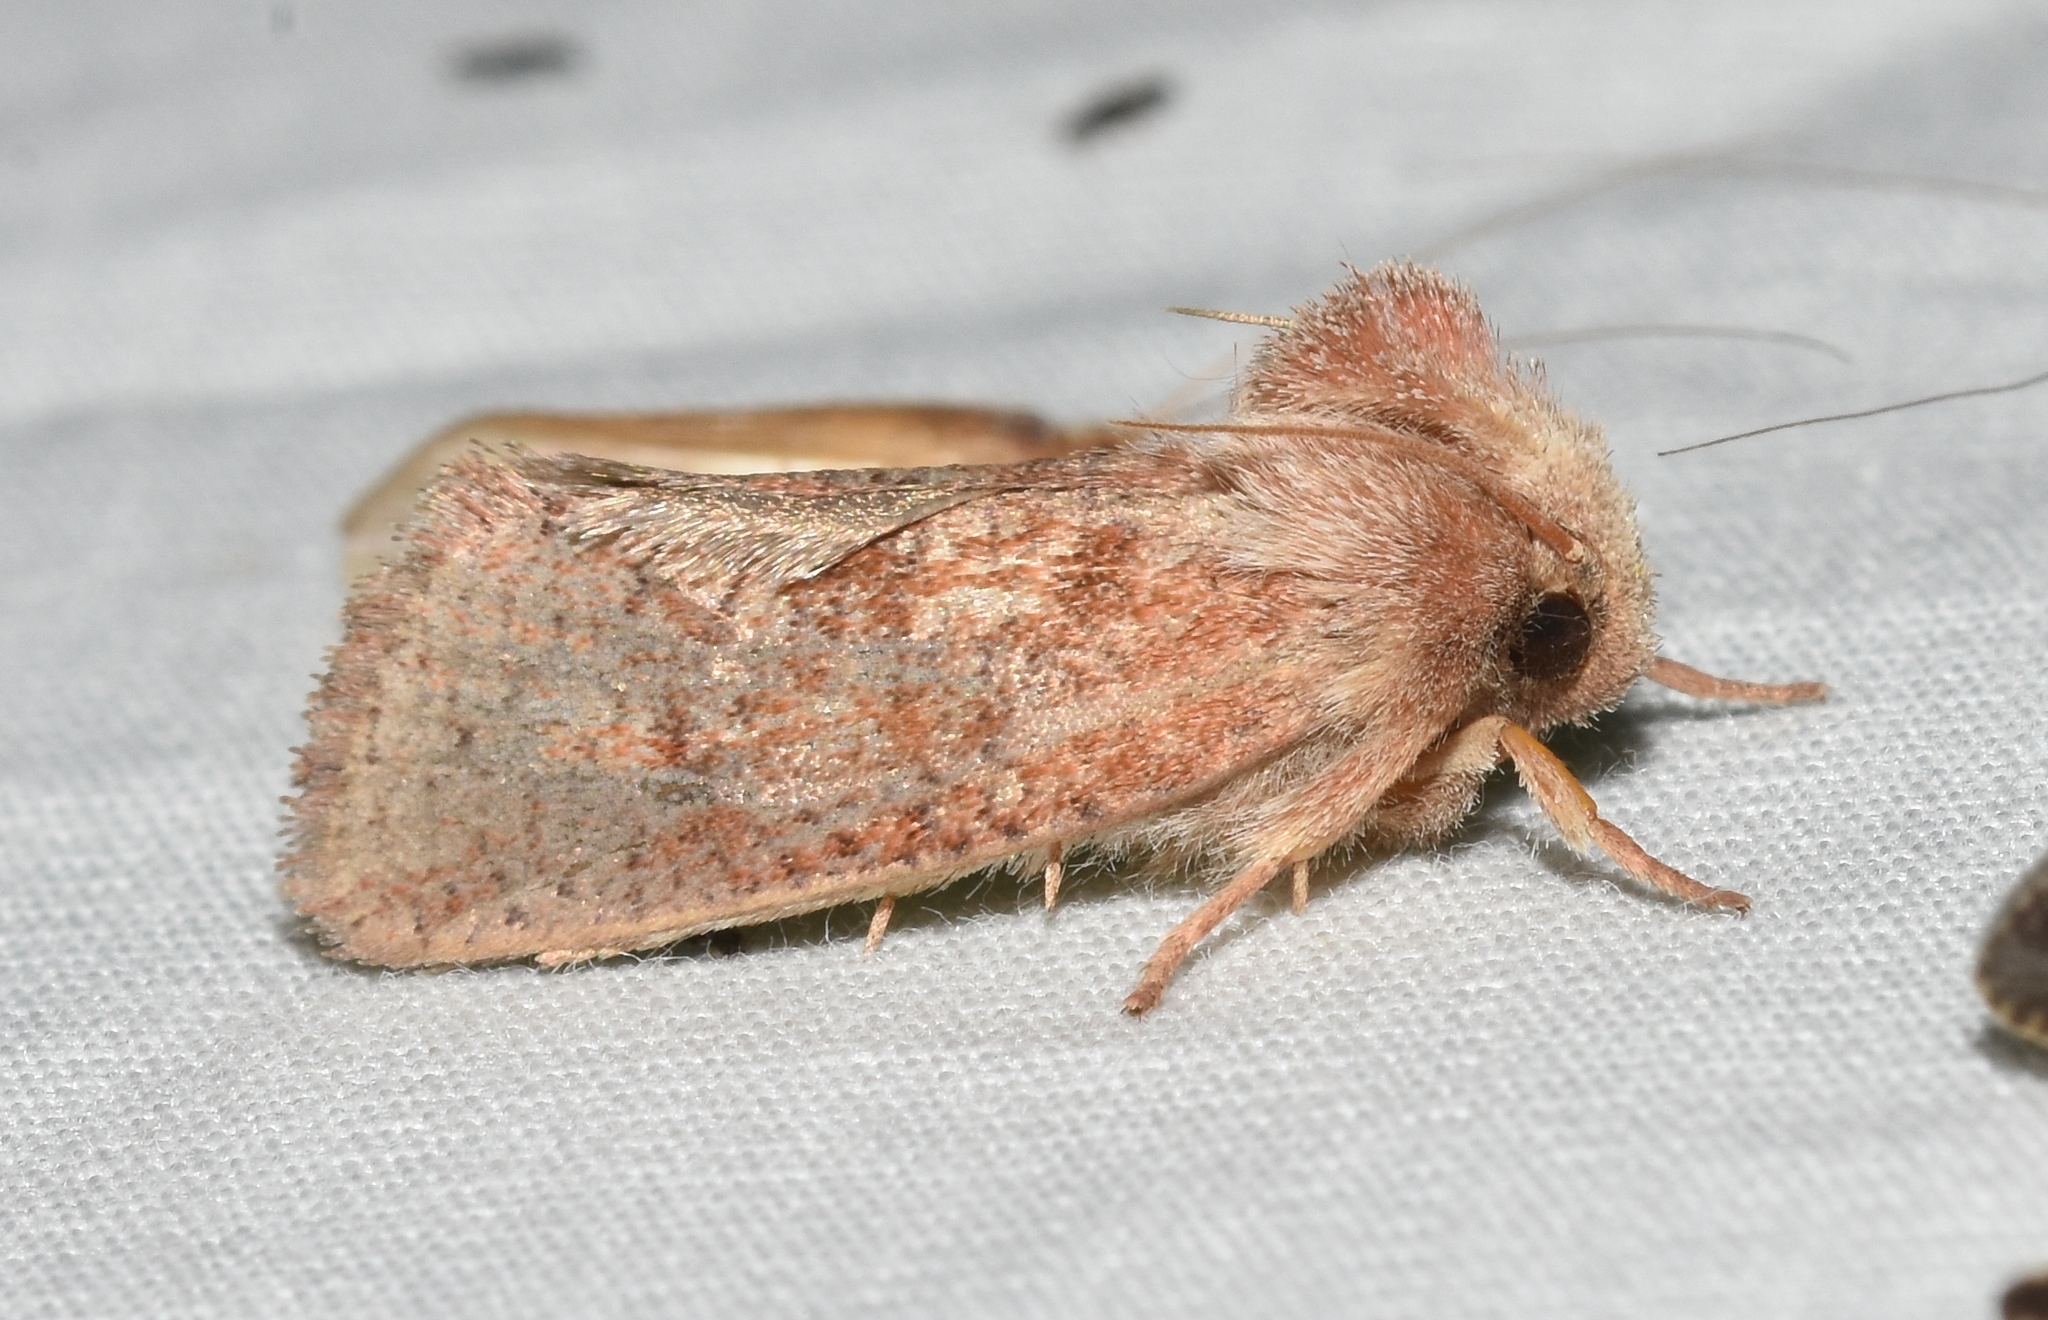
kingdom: Animalia
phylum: Arthropoda
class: Insecta
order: Lepidoptera
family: Tineidae
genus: Acrolophus
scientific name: Acrolophus plumifrontella
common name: Eastern grass tubeworm moth
